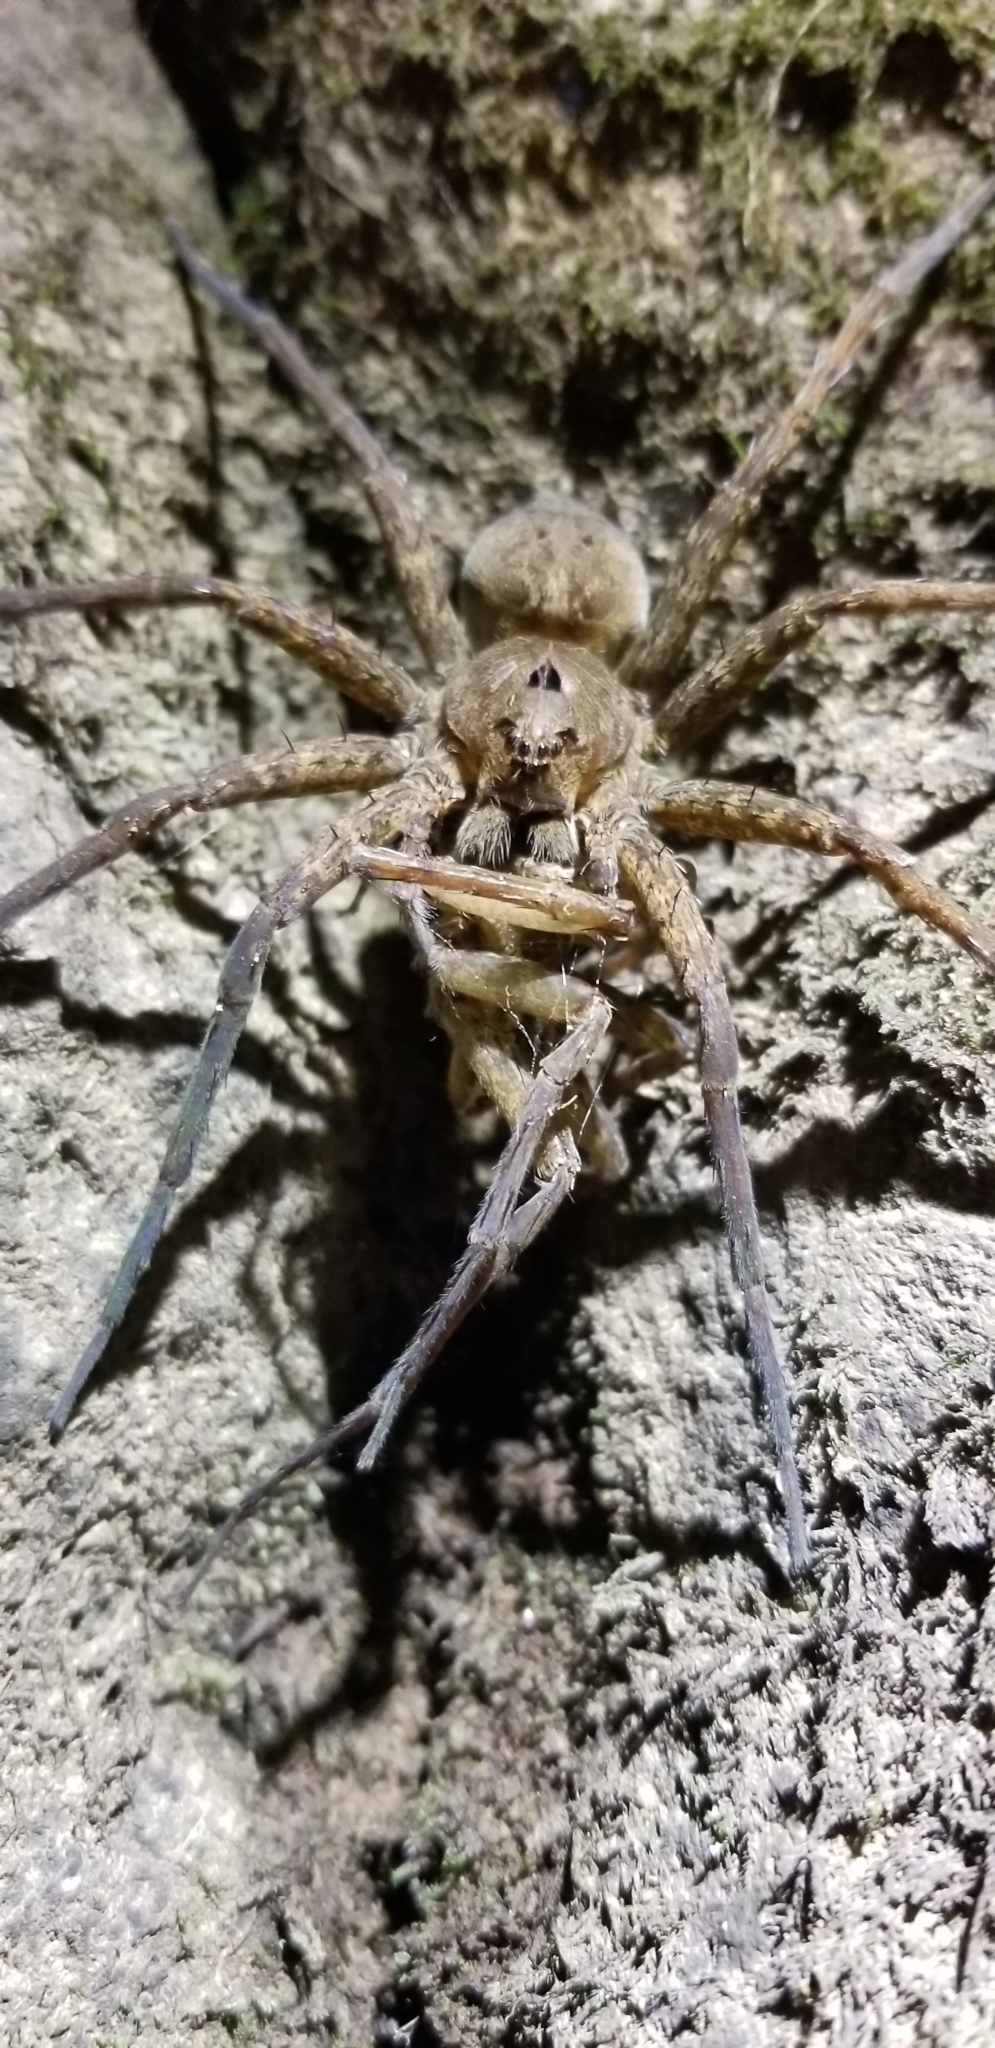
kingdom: Animalia
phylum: Arthropoda
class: Arachnida
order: Araneae
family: Pisauridae
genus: Dolomedes
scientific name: Dolomedes vittatus
